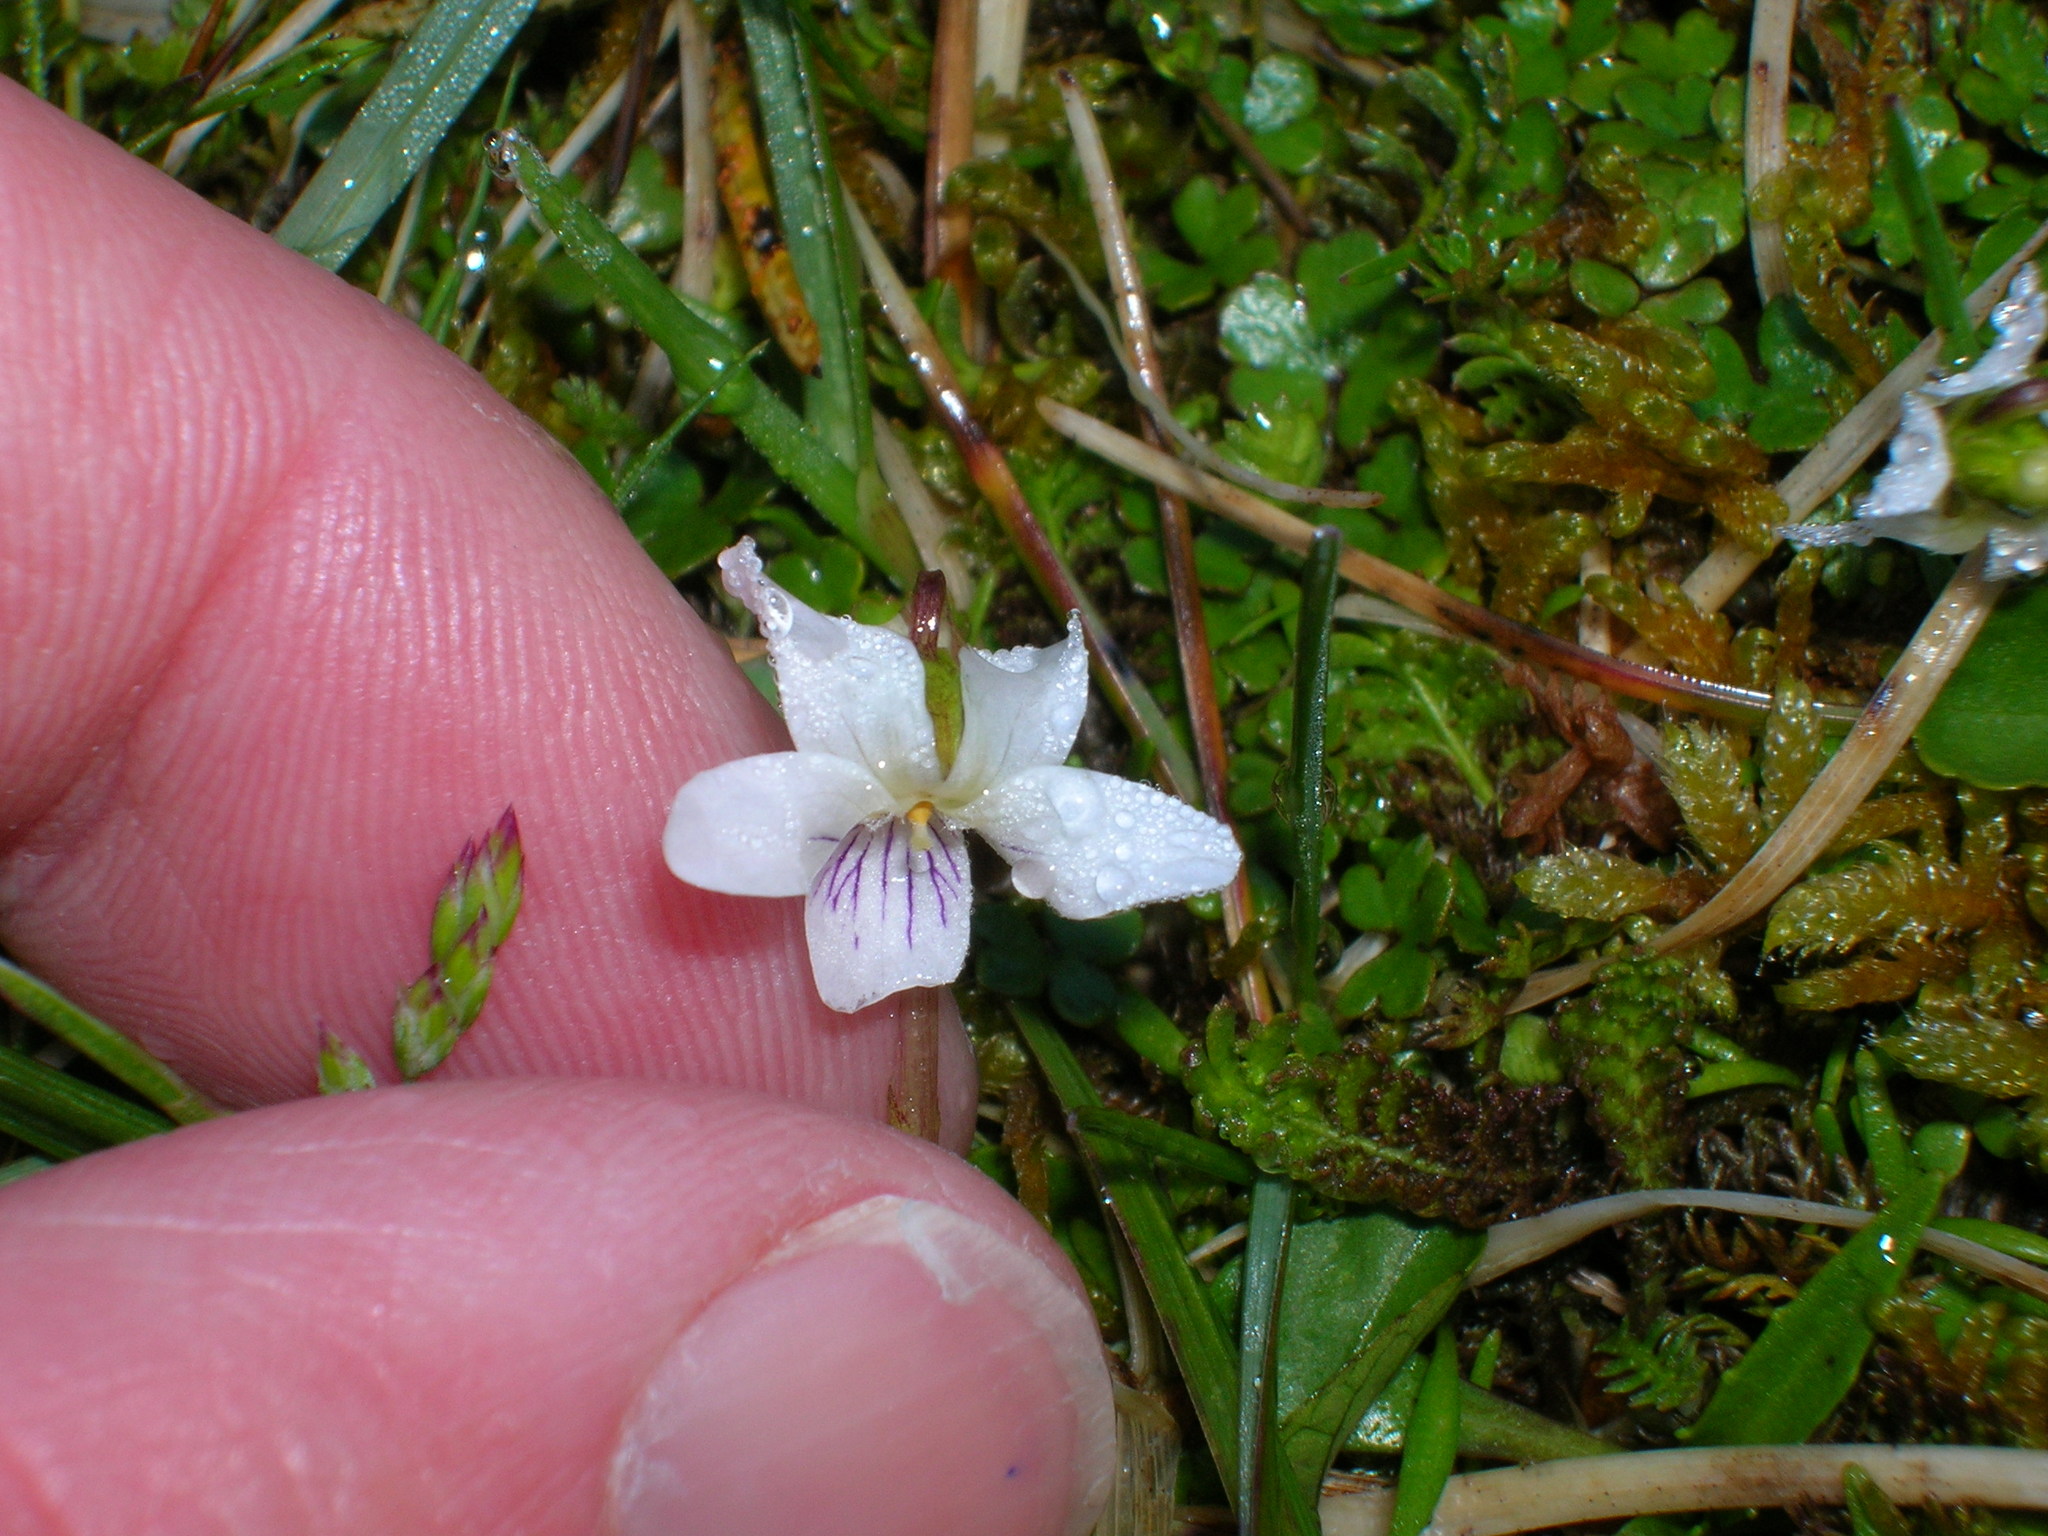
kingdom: Plantae
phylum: Tracheophyta
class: Magnoliopsida
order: Malpighiales
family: Violaceae
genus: Viola
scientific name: Viola cunninghamii
